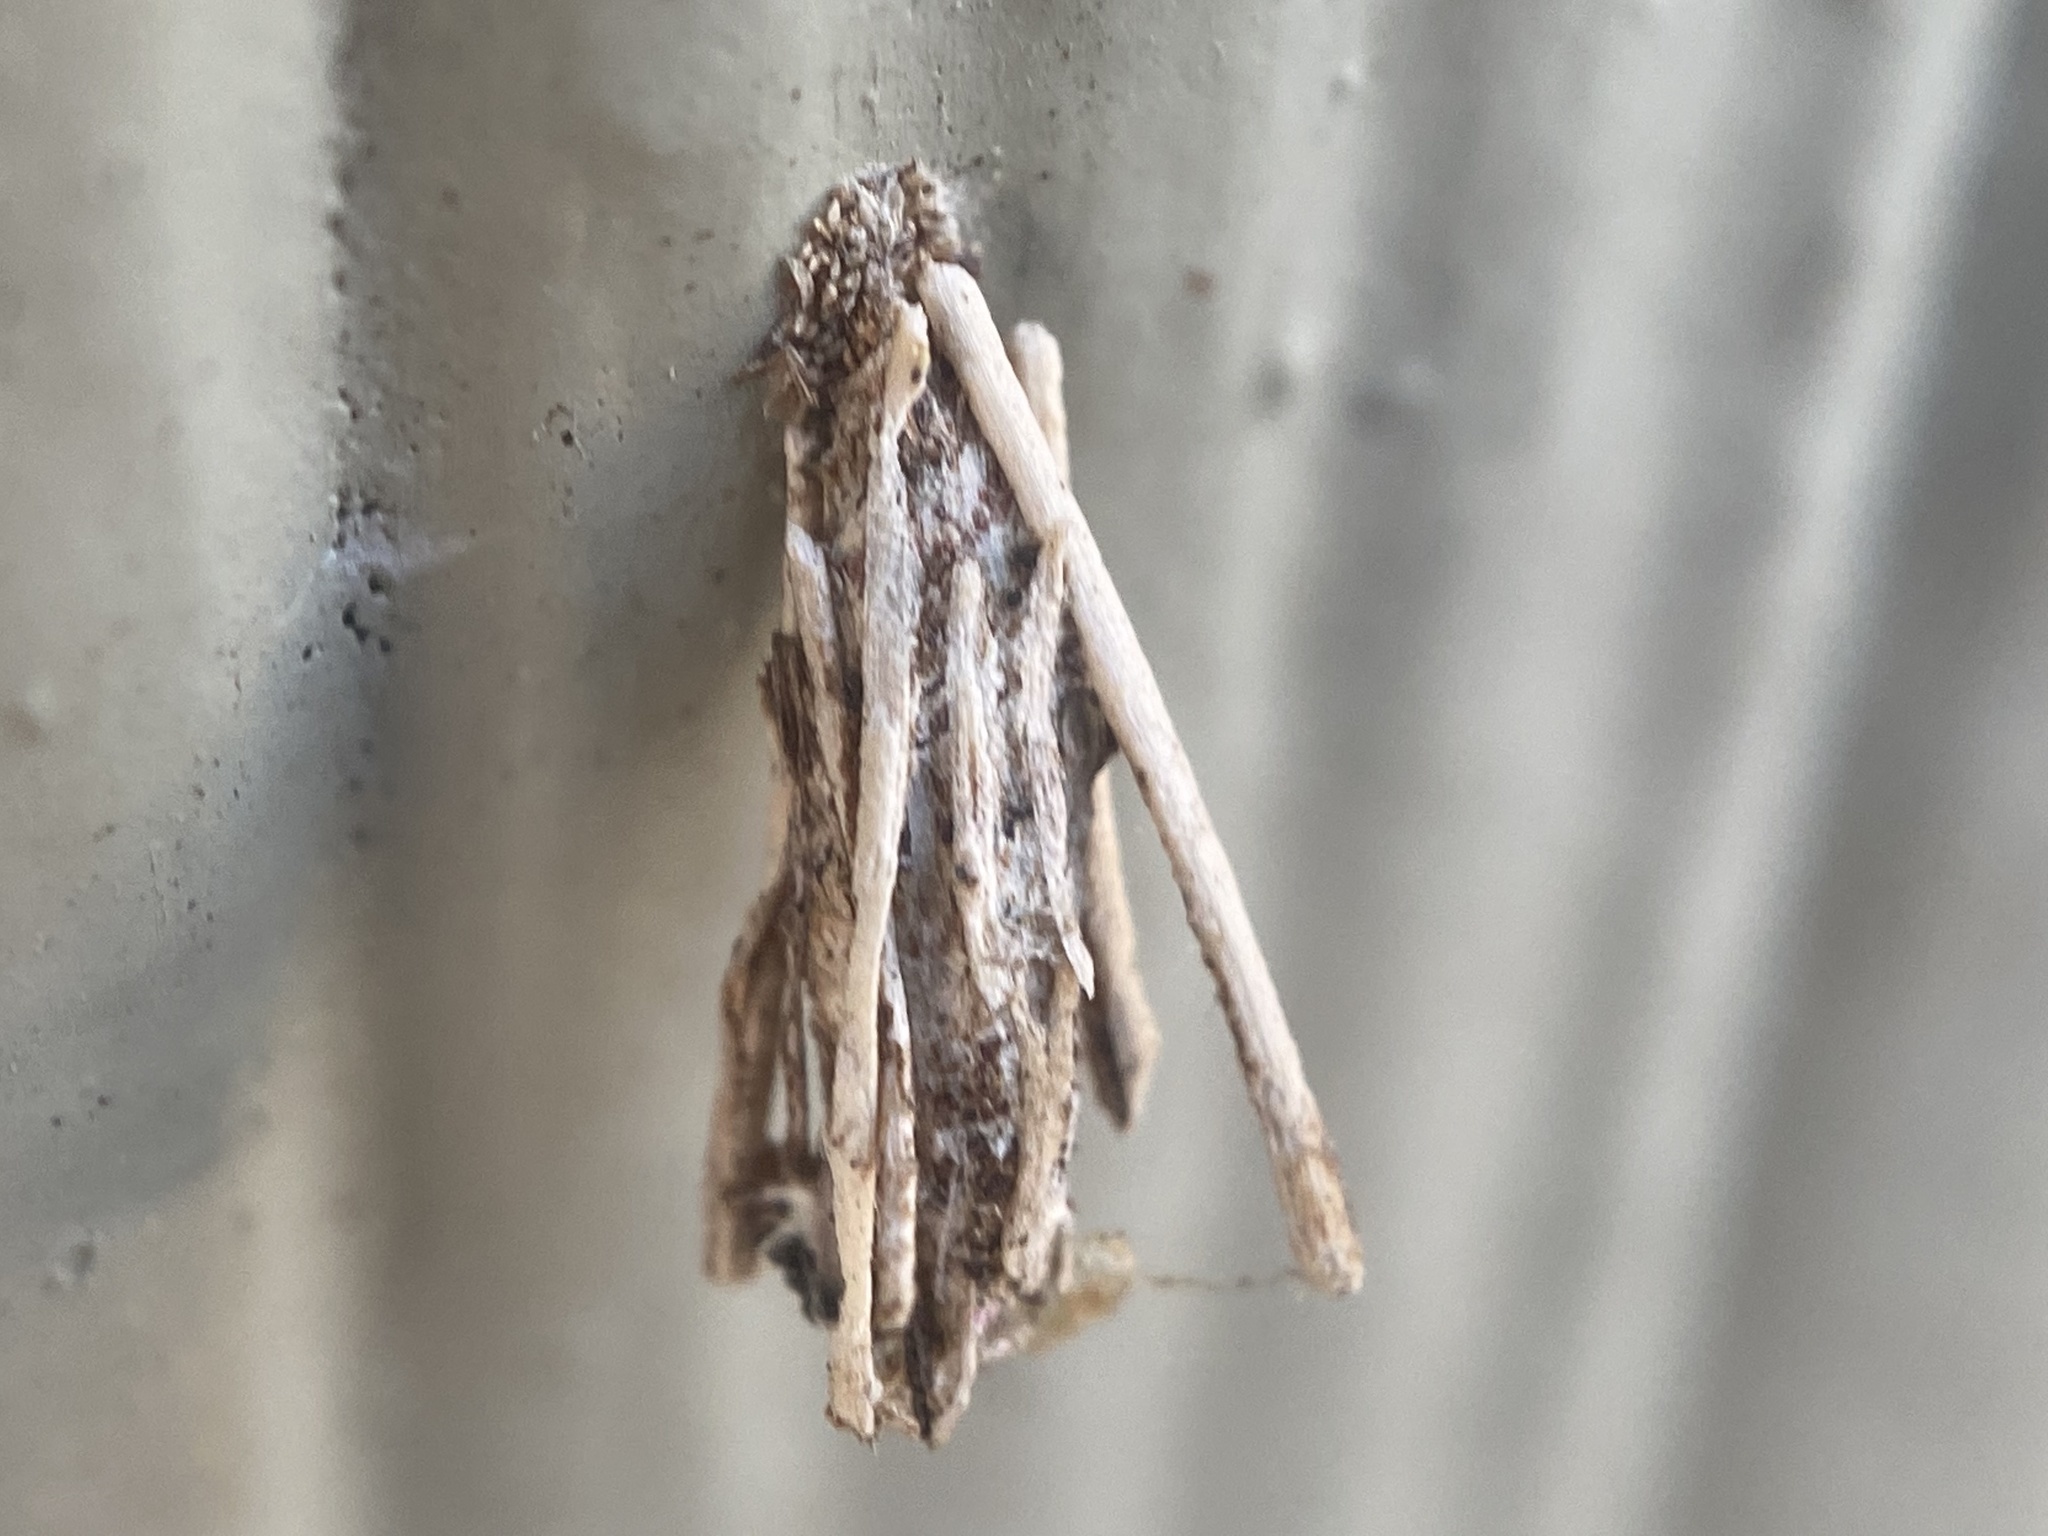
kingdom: Animalia
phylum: Arthropoda
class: Insecta
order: Lepidoptera
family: Psychidae
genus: Psyche
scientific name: Psyche casta
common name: Common sweep
